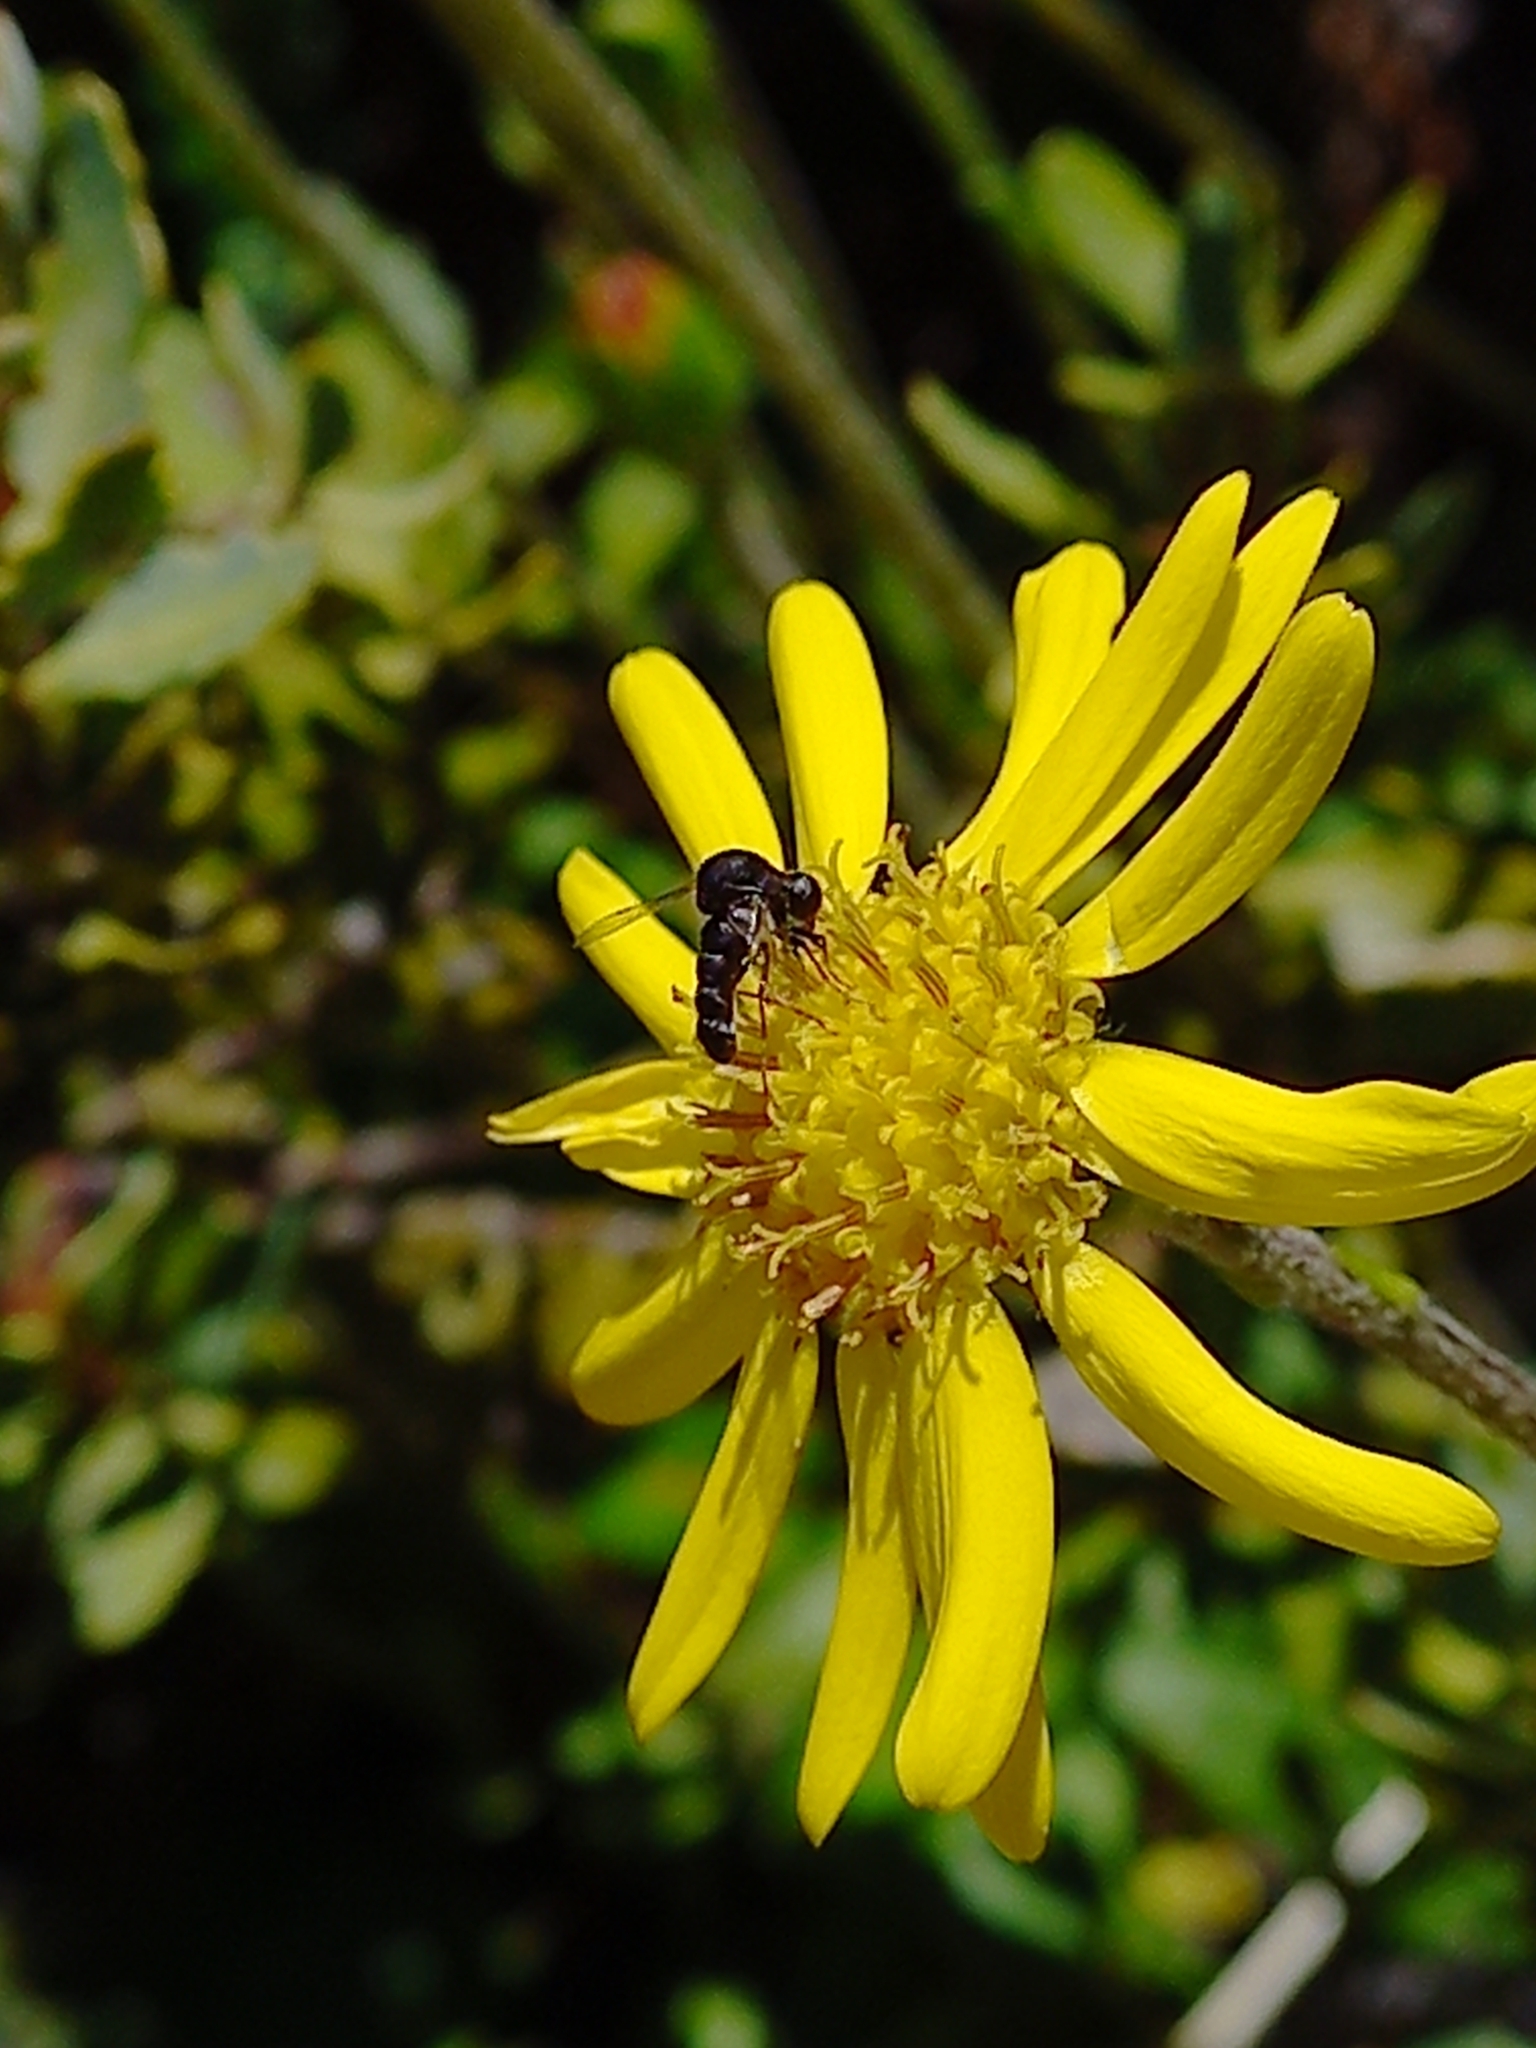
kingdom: Animalia
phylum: Arthropoda
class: Insecta
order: Diptera
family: Acroceridae
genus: Helle
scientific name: Helle longirostris
